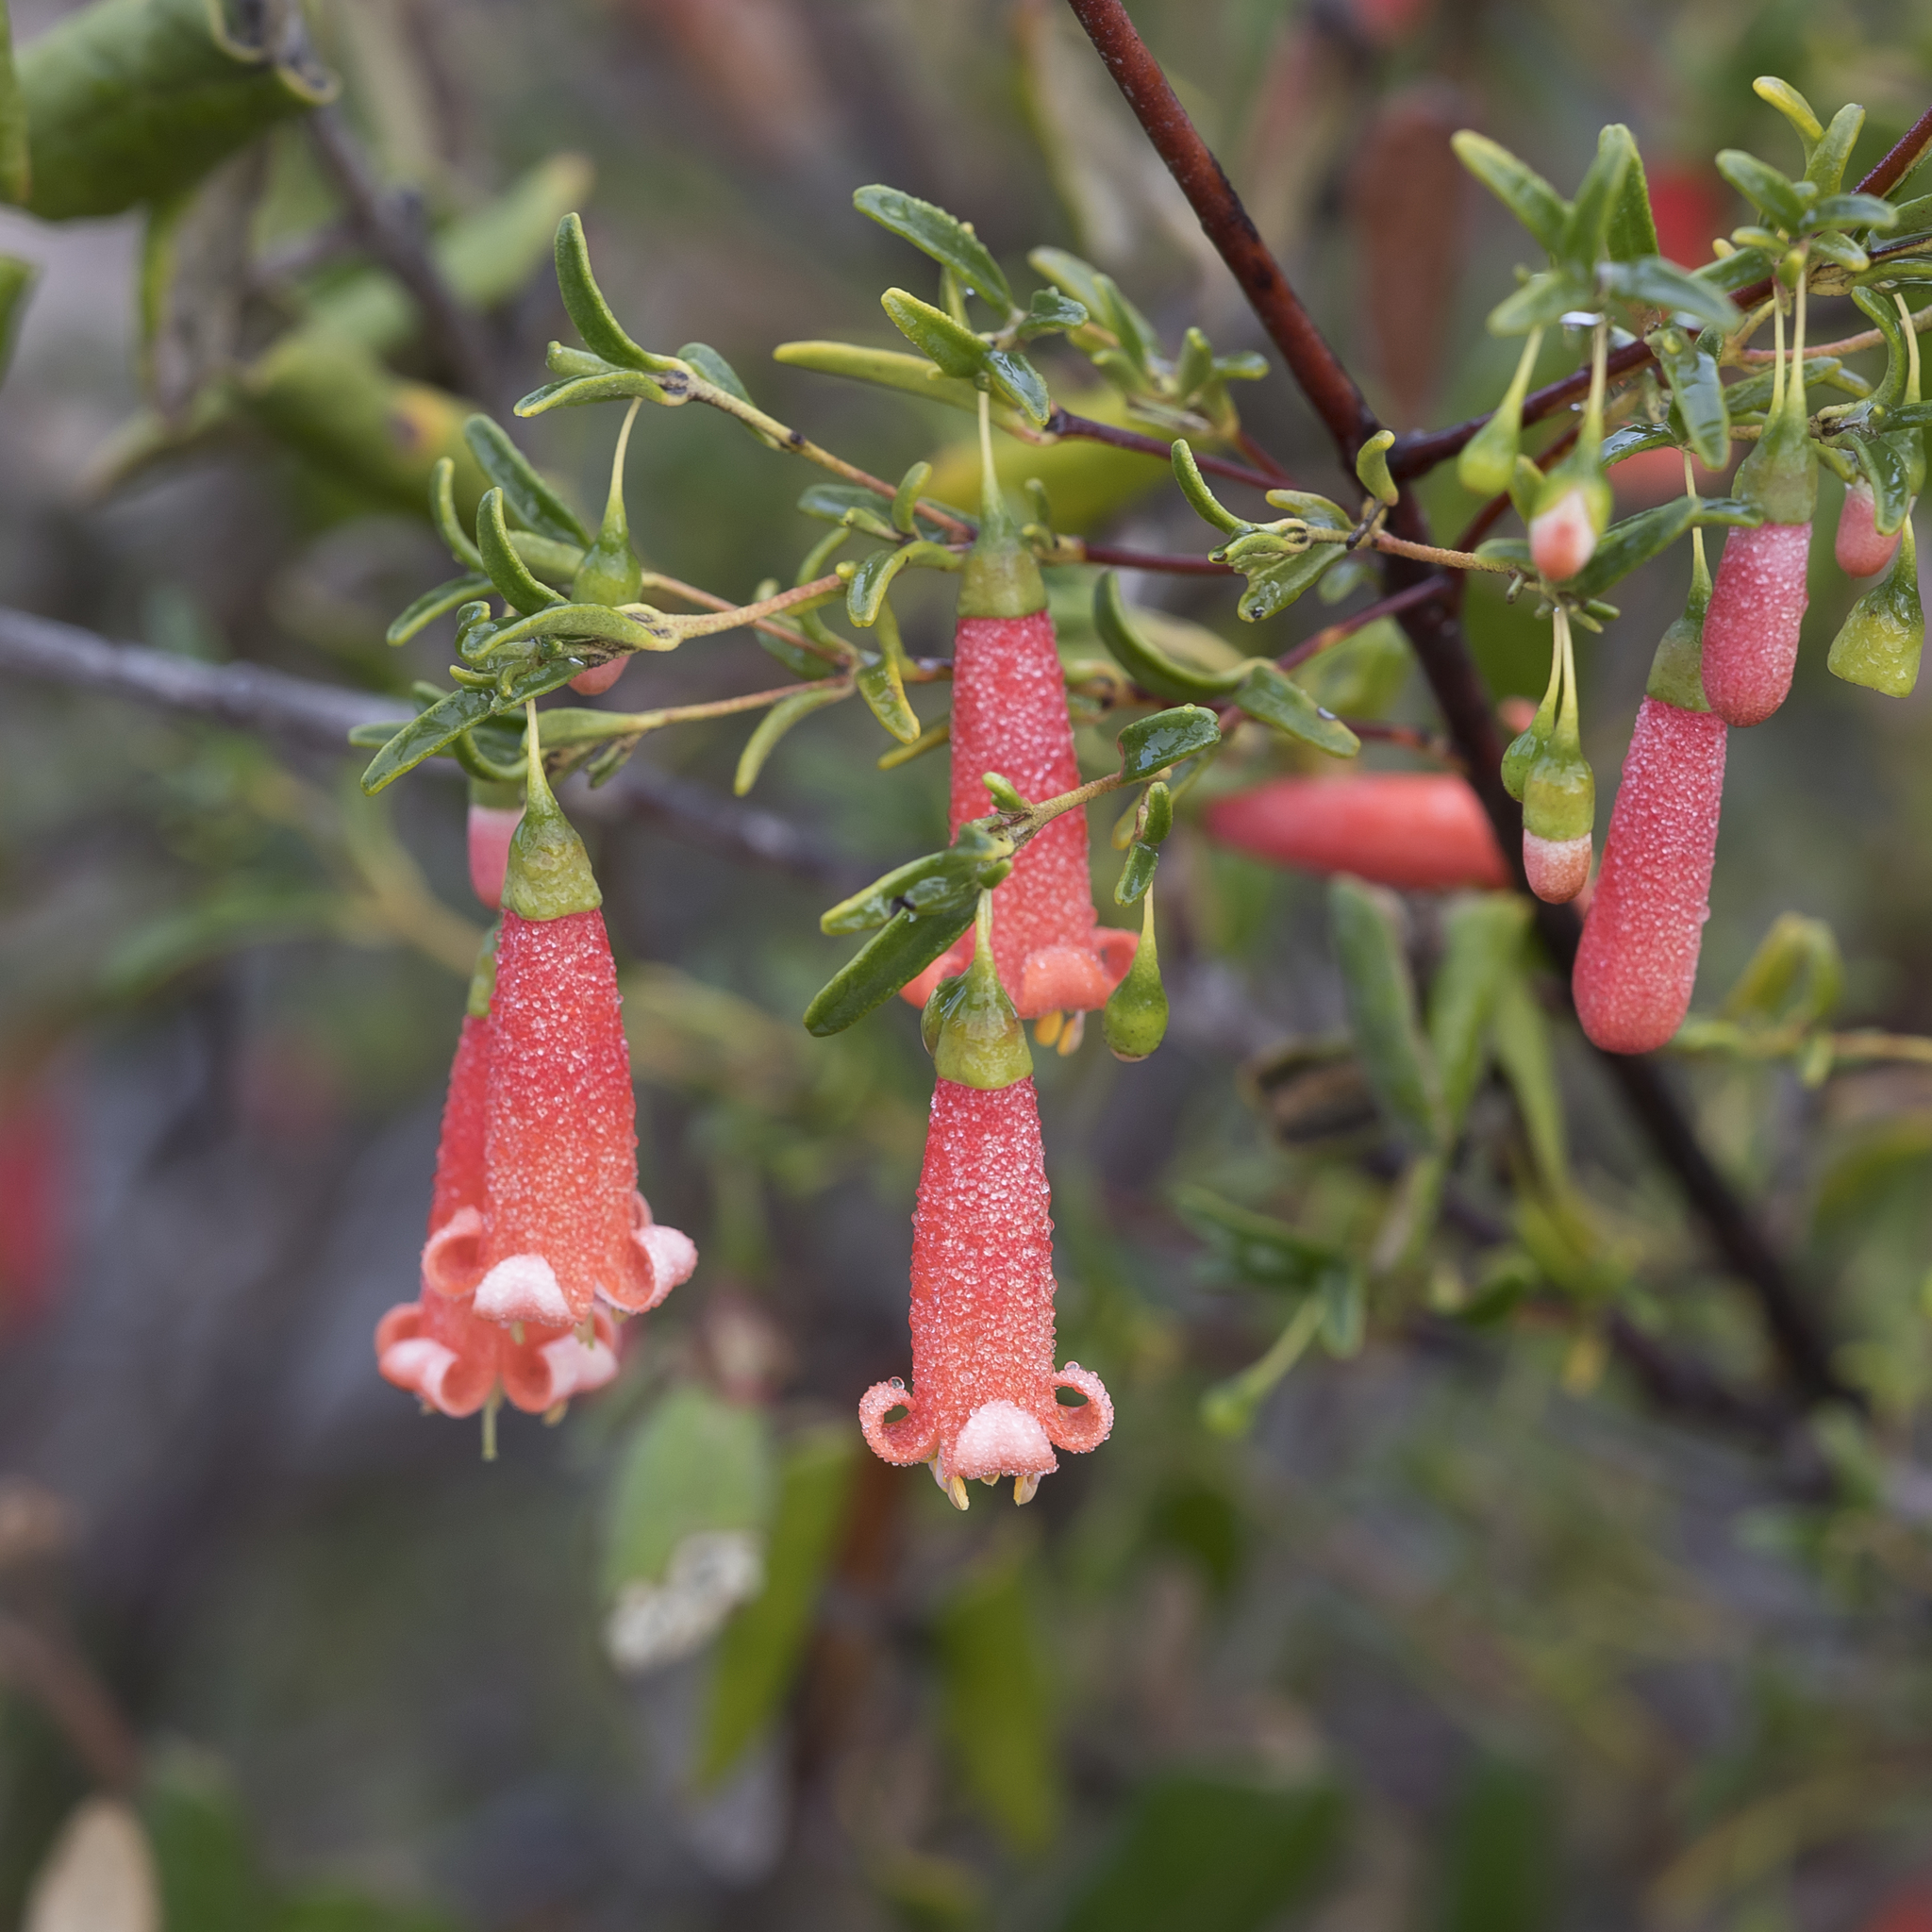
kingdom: Plantae
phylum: Tracheophyta
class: Magnoliopsida
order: Sapindales
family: Rutaceae
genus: Correa
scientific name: Correa pulchella
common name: Salmon correa
